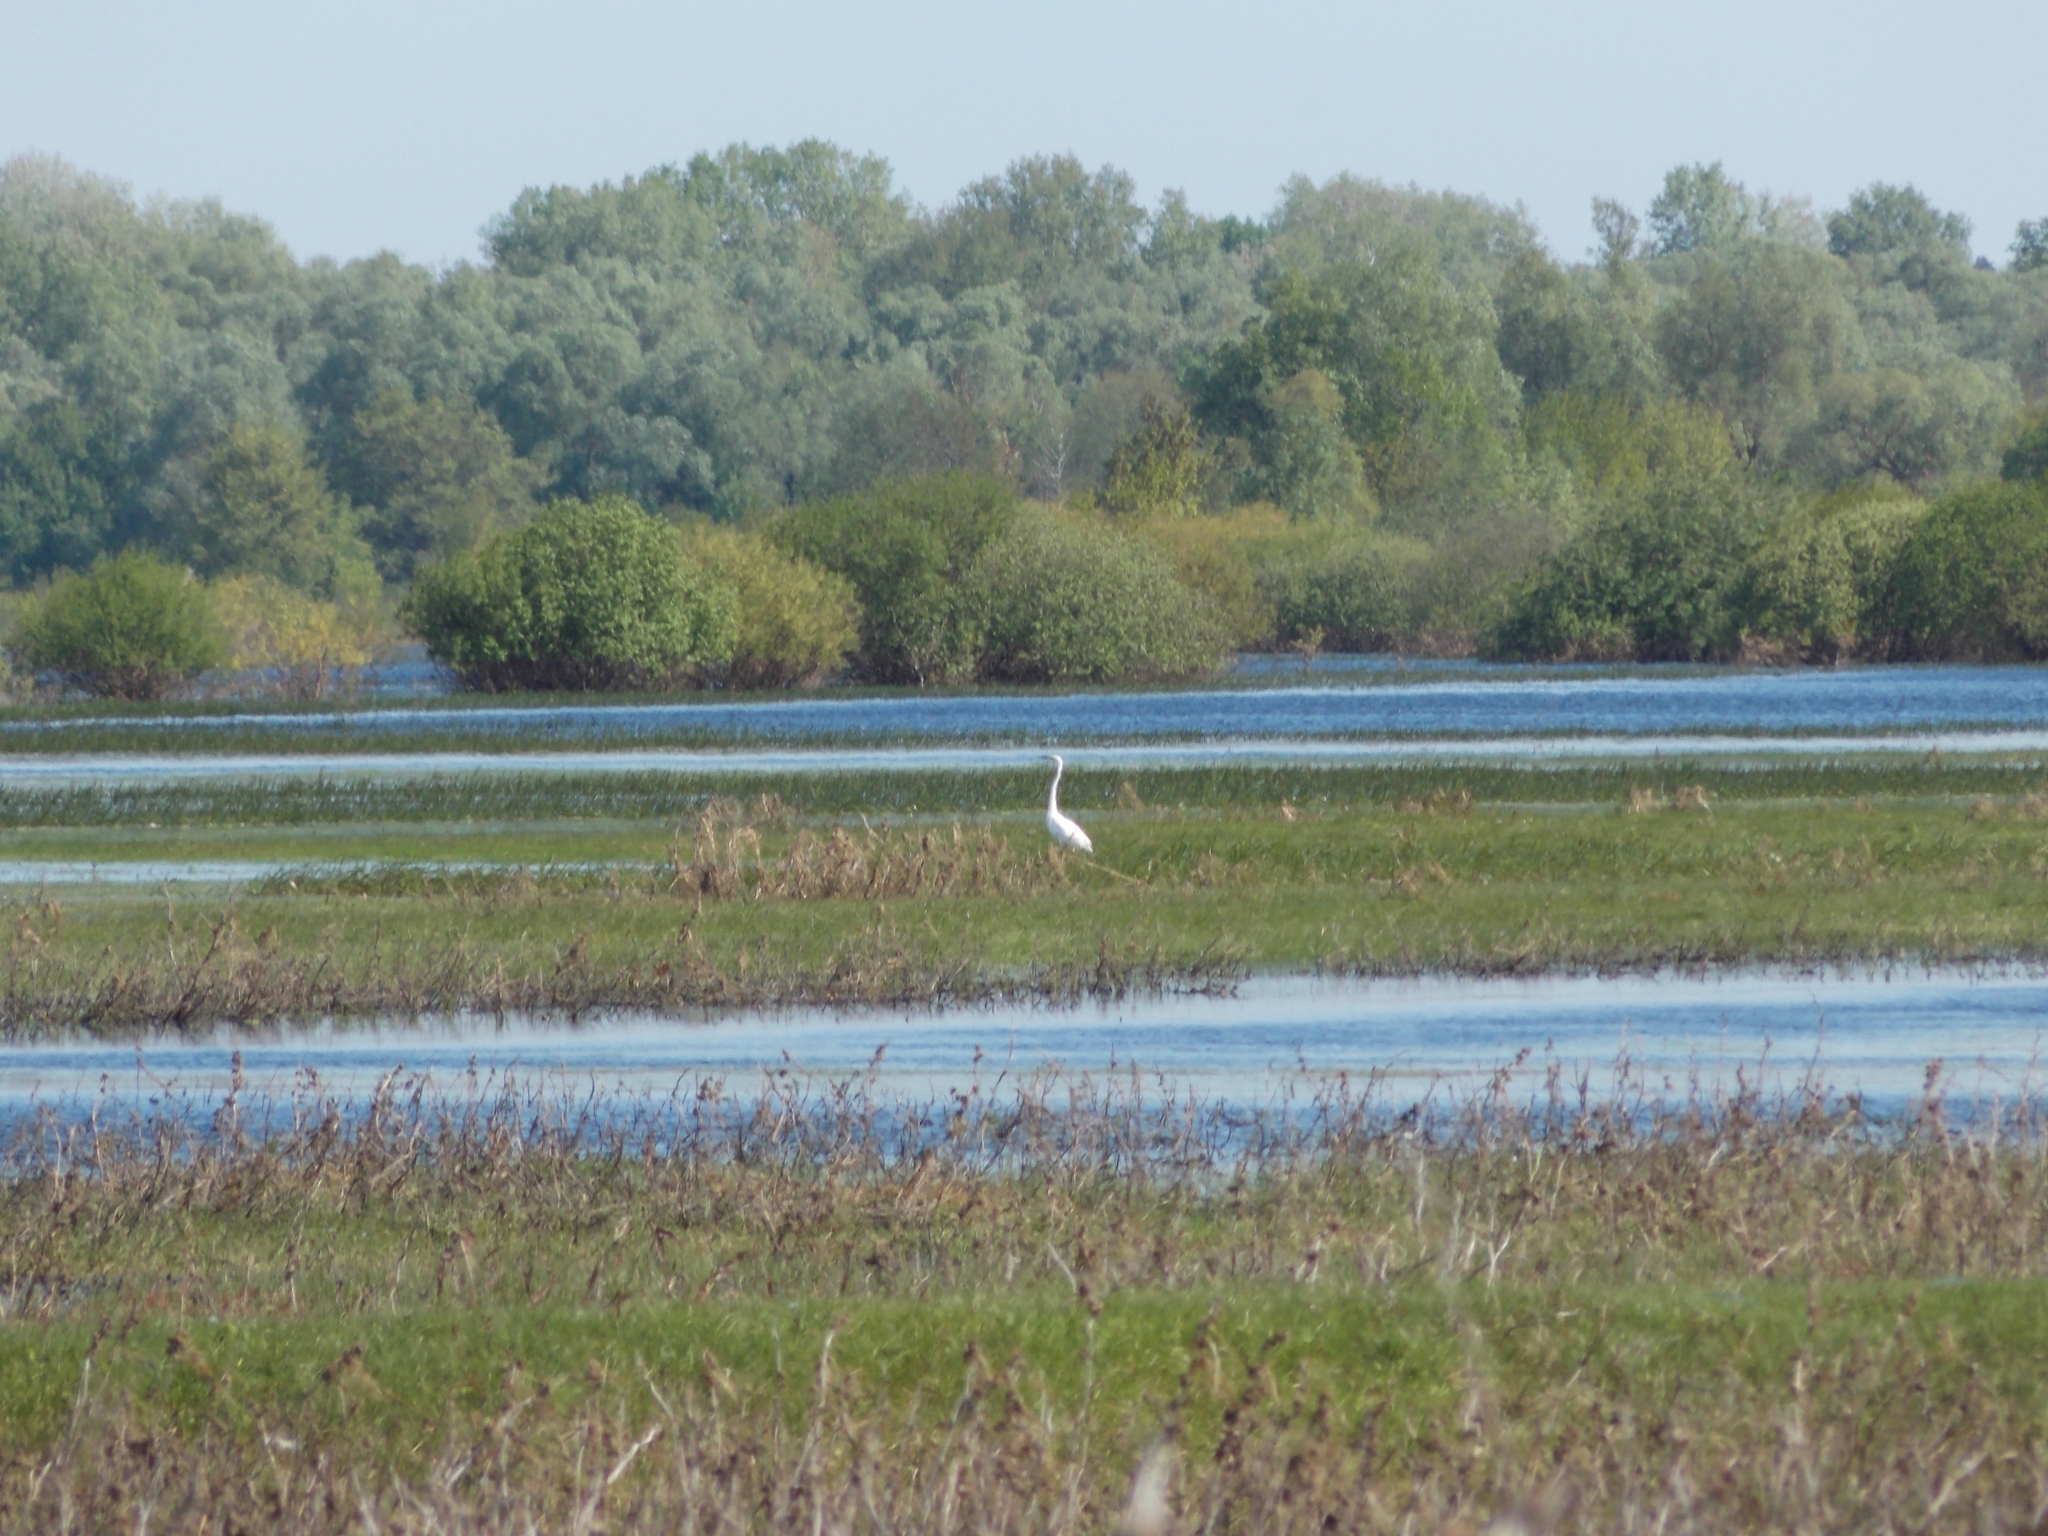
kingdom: Animalia
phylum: Chordata
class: Aves
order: Pelecaniformes
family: Ardeidae
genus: Ardea
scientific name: Ardea alba
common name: Great egret
